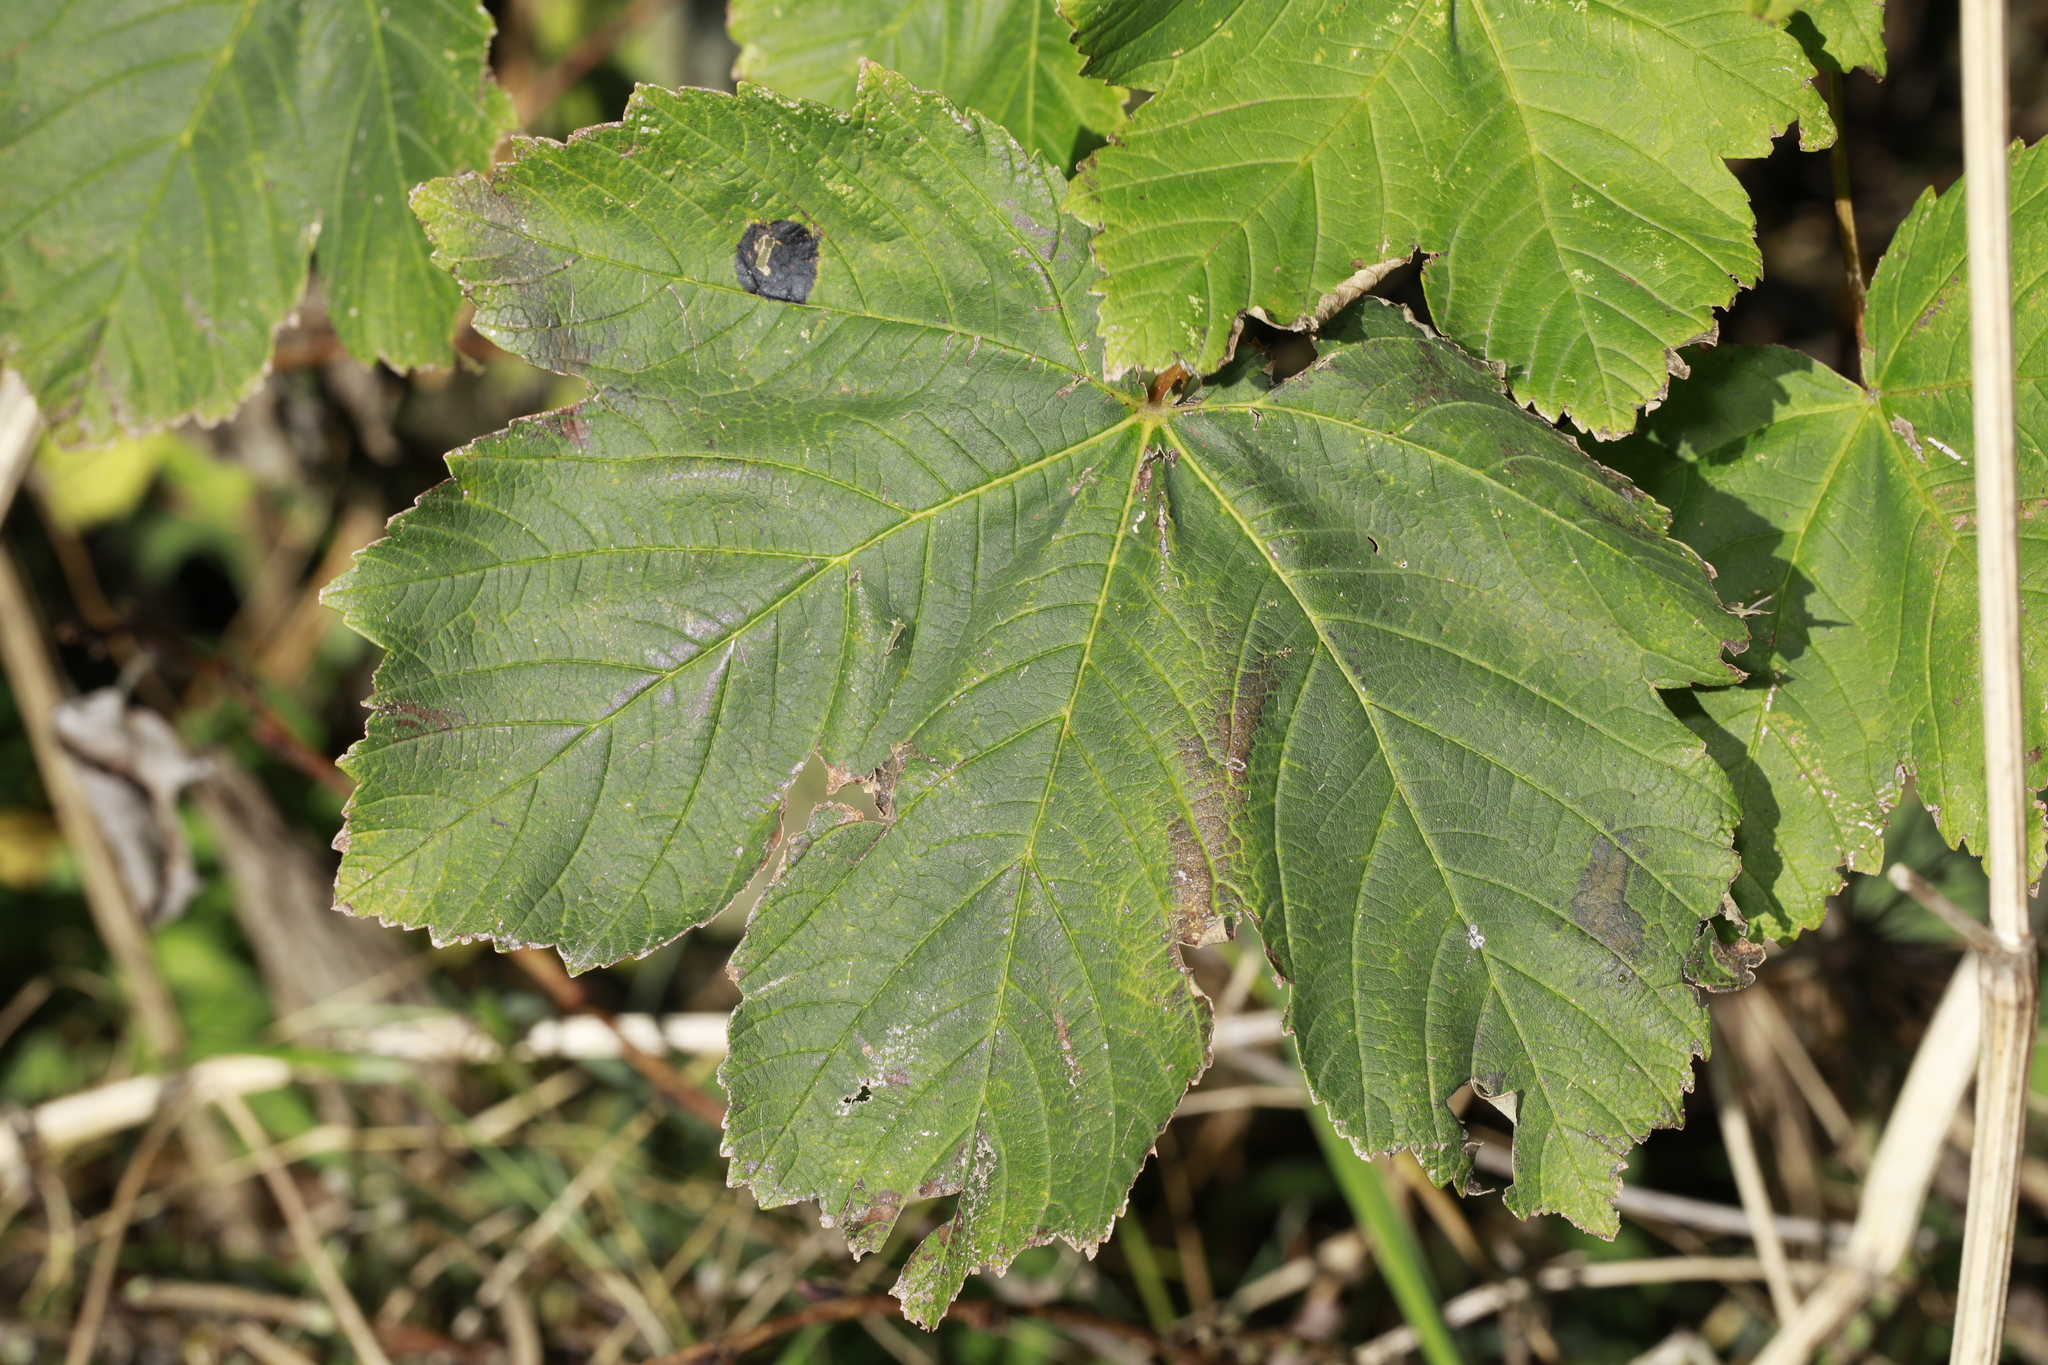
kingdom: Fungi
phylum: Ascomycota
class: Leotiomycetes
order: Rhytismatales
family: Rhytismataceae
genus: Rhytisma
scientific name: Rhytisma acerinum
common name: European tar spot
